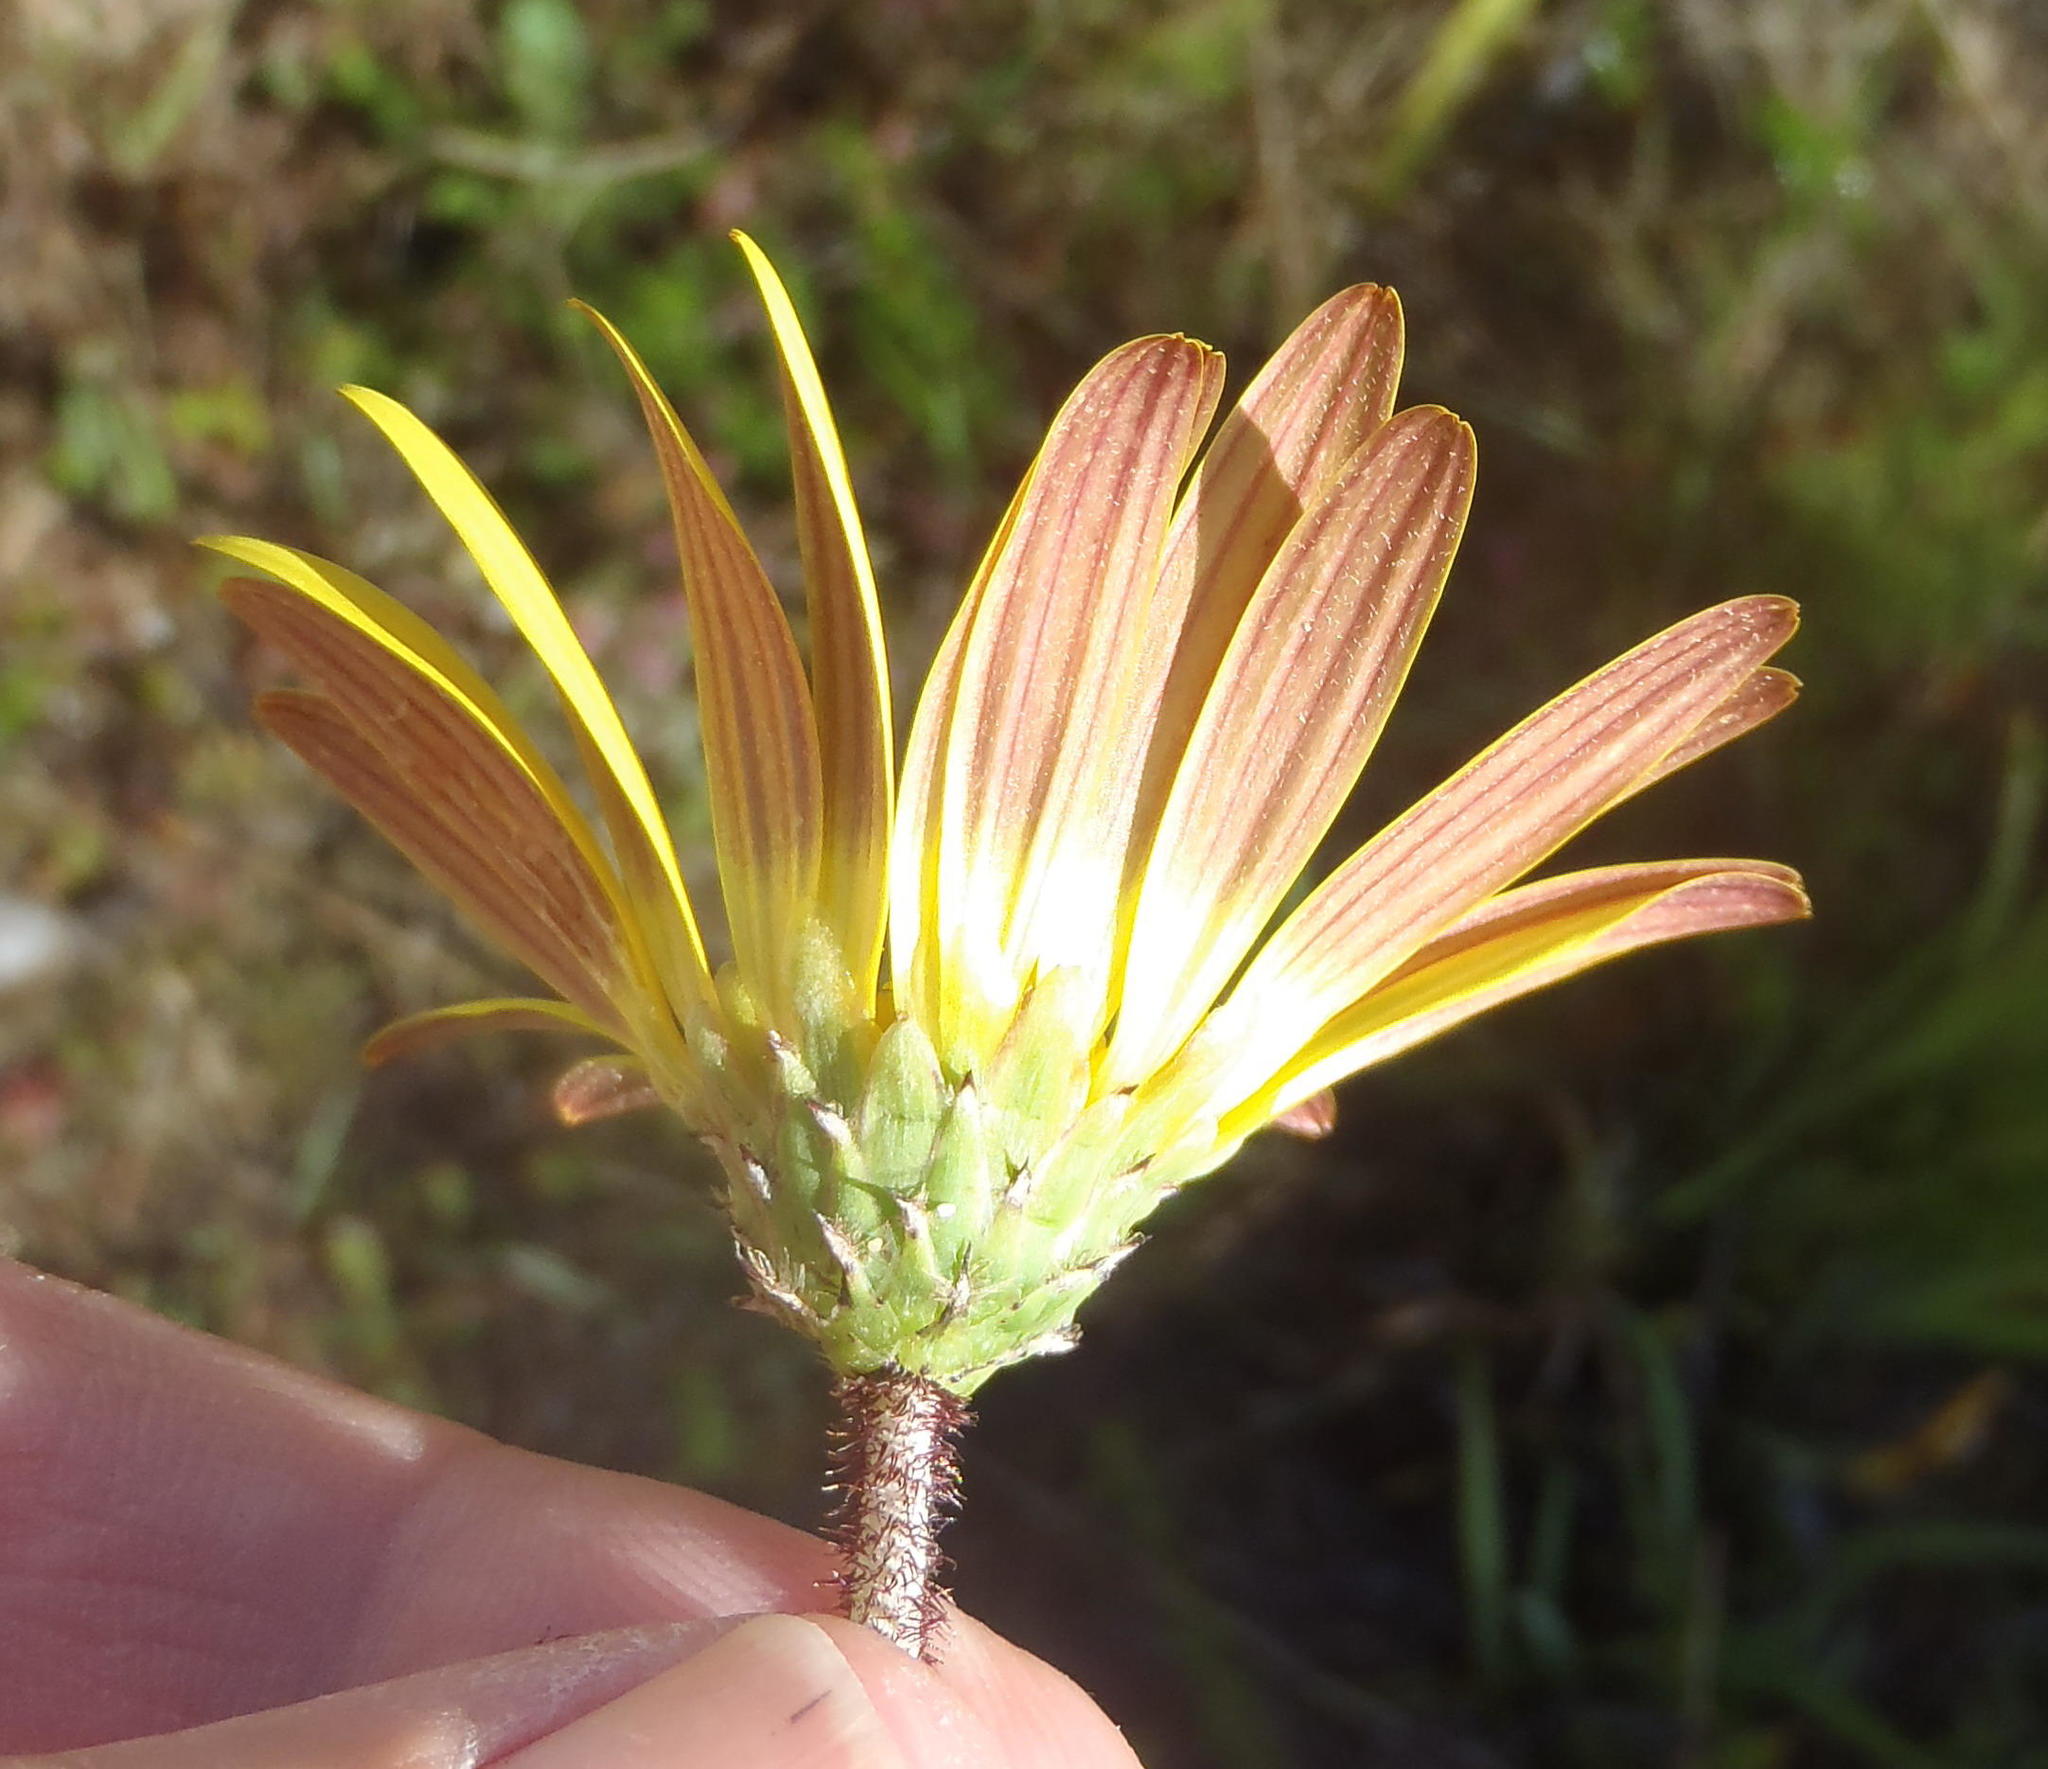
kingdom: Plantae
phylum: Tracheophyta
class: Magnoliopsida
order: Asterales
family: Asteraceae
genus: Arctotheca
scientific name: Arctotheca prostrata
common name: Capeweed
